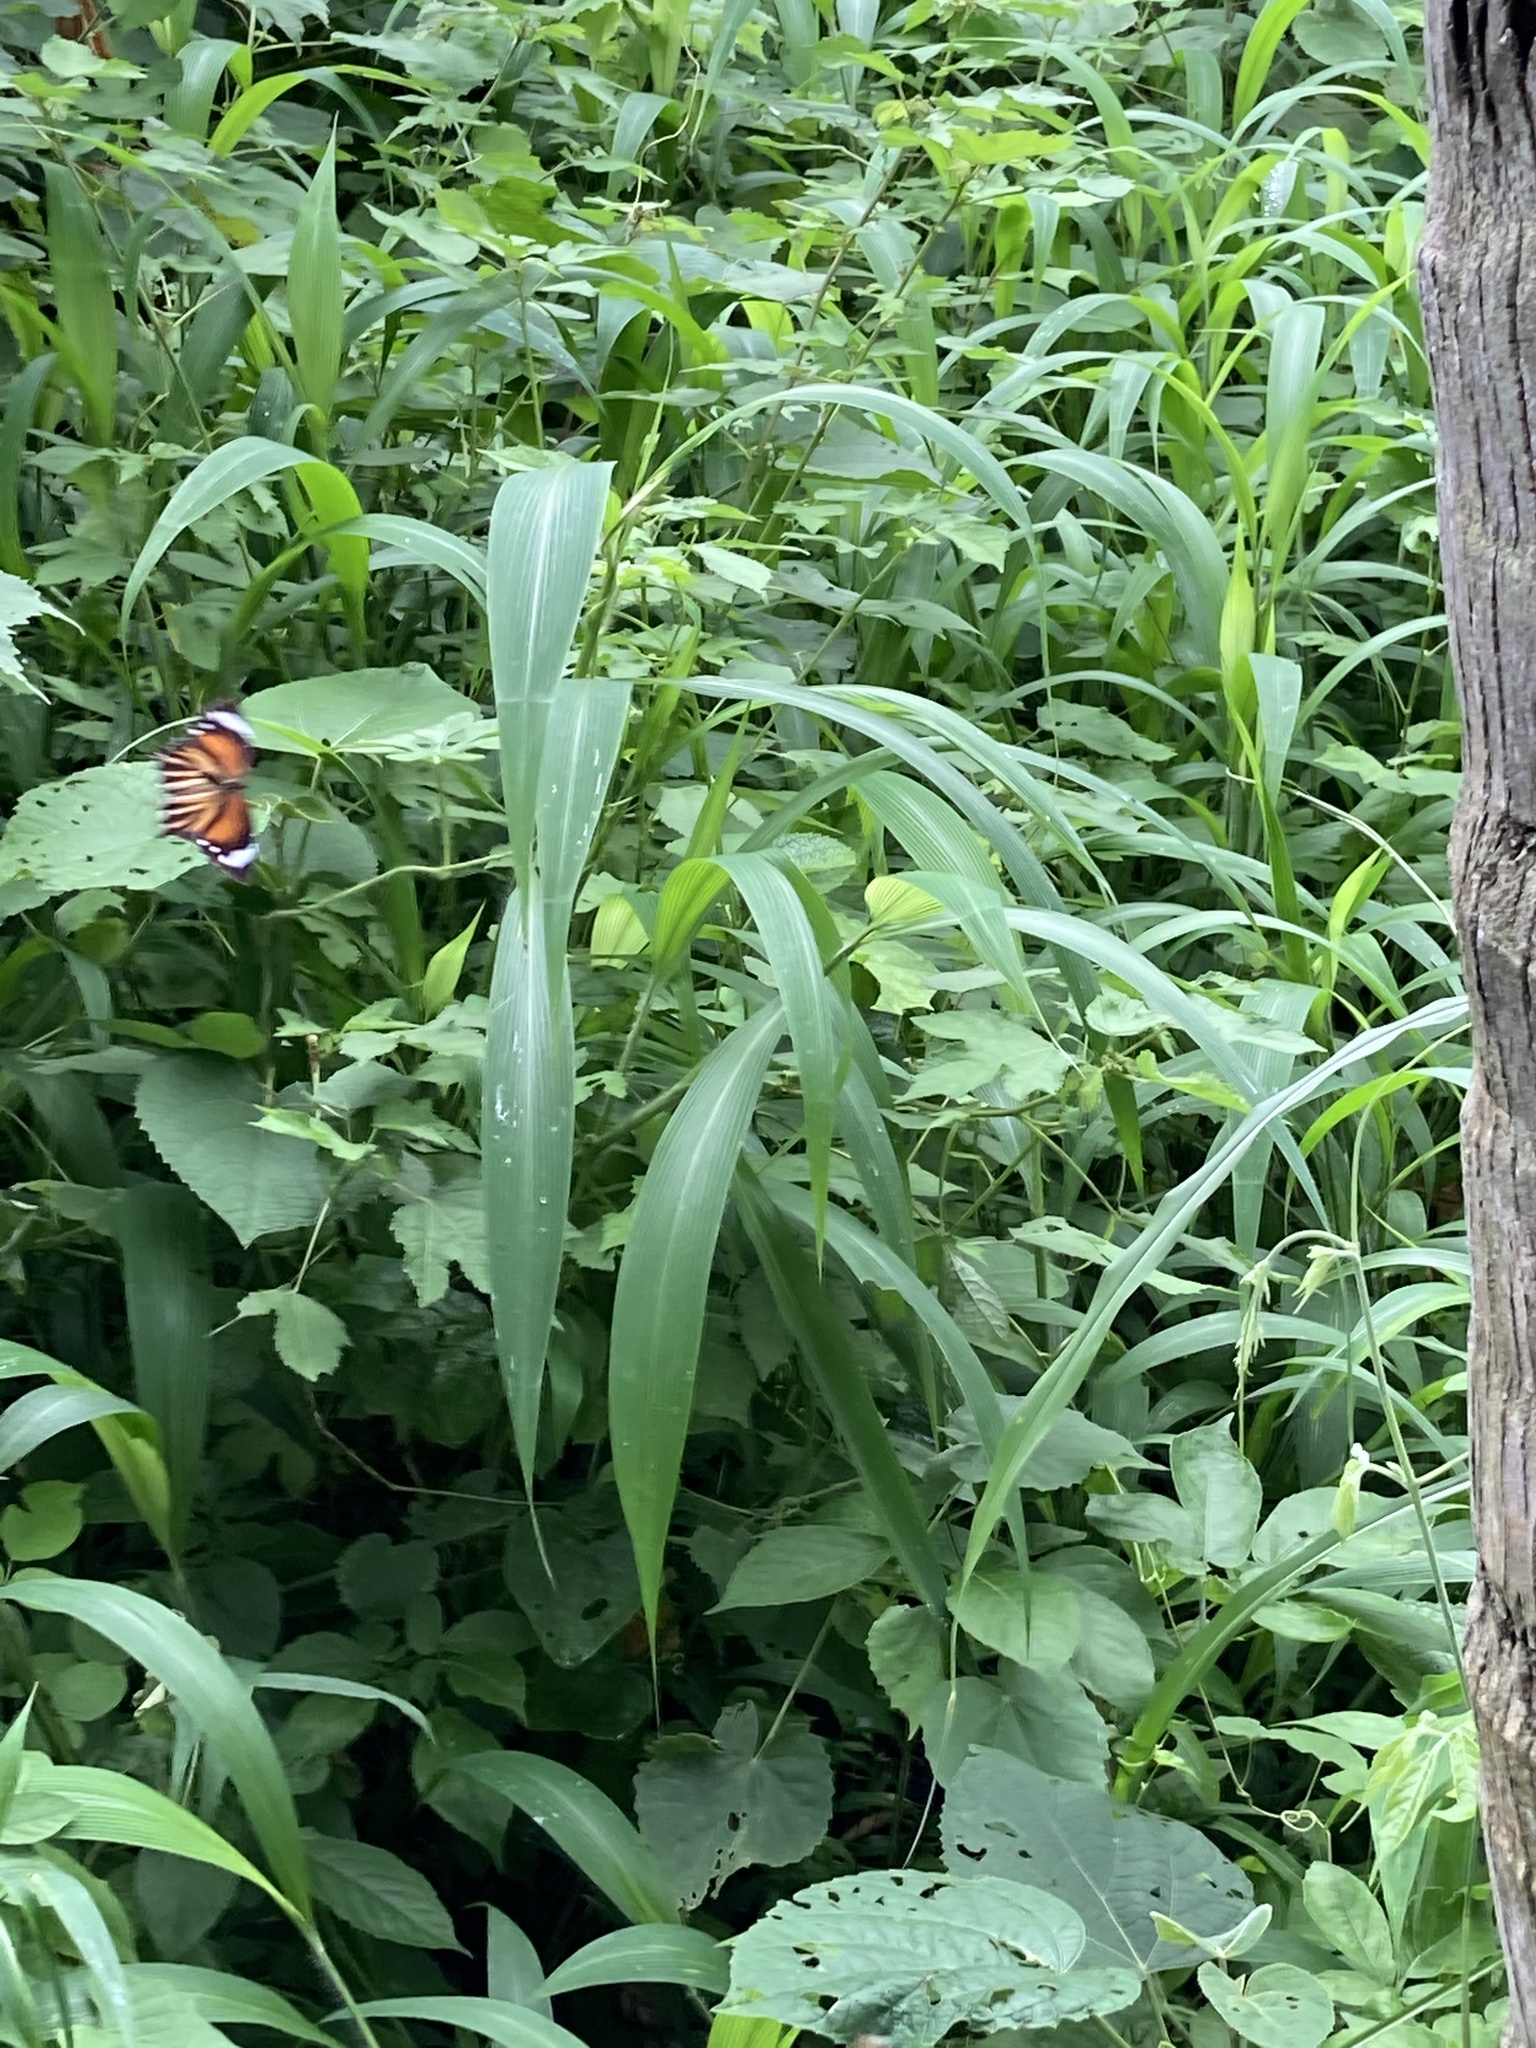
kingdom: Animalia
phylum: Arthropoda
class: Insecta
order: Lepidoptera
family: Nymphalidae
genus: Elymnias
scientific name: Elymnias caudata
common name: Tailed palmfly
